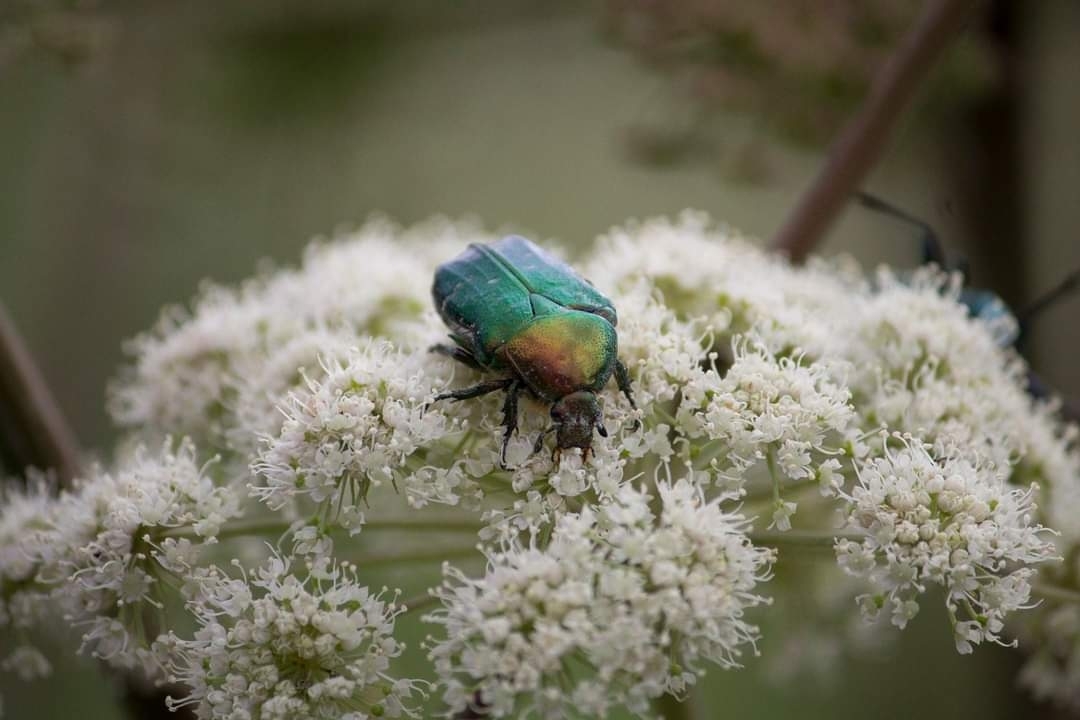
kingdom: Animalia
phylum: Arthropoda
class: Insecta
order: Coleoptera
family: Scarabaeidae
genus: Cetonia
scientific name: Cetonia aurata
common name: Rose chafer
